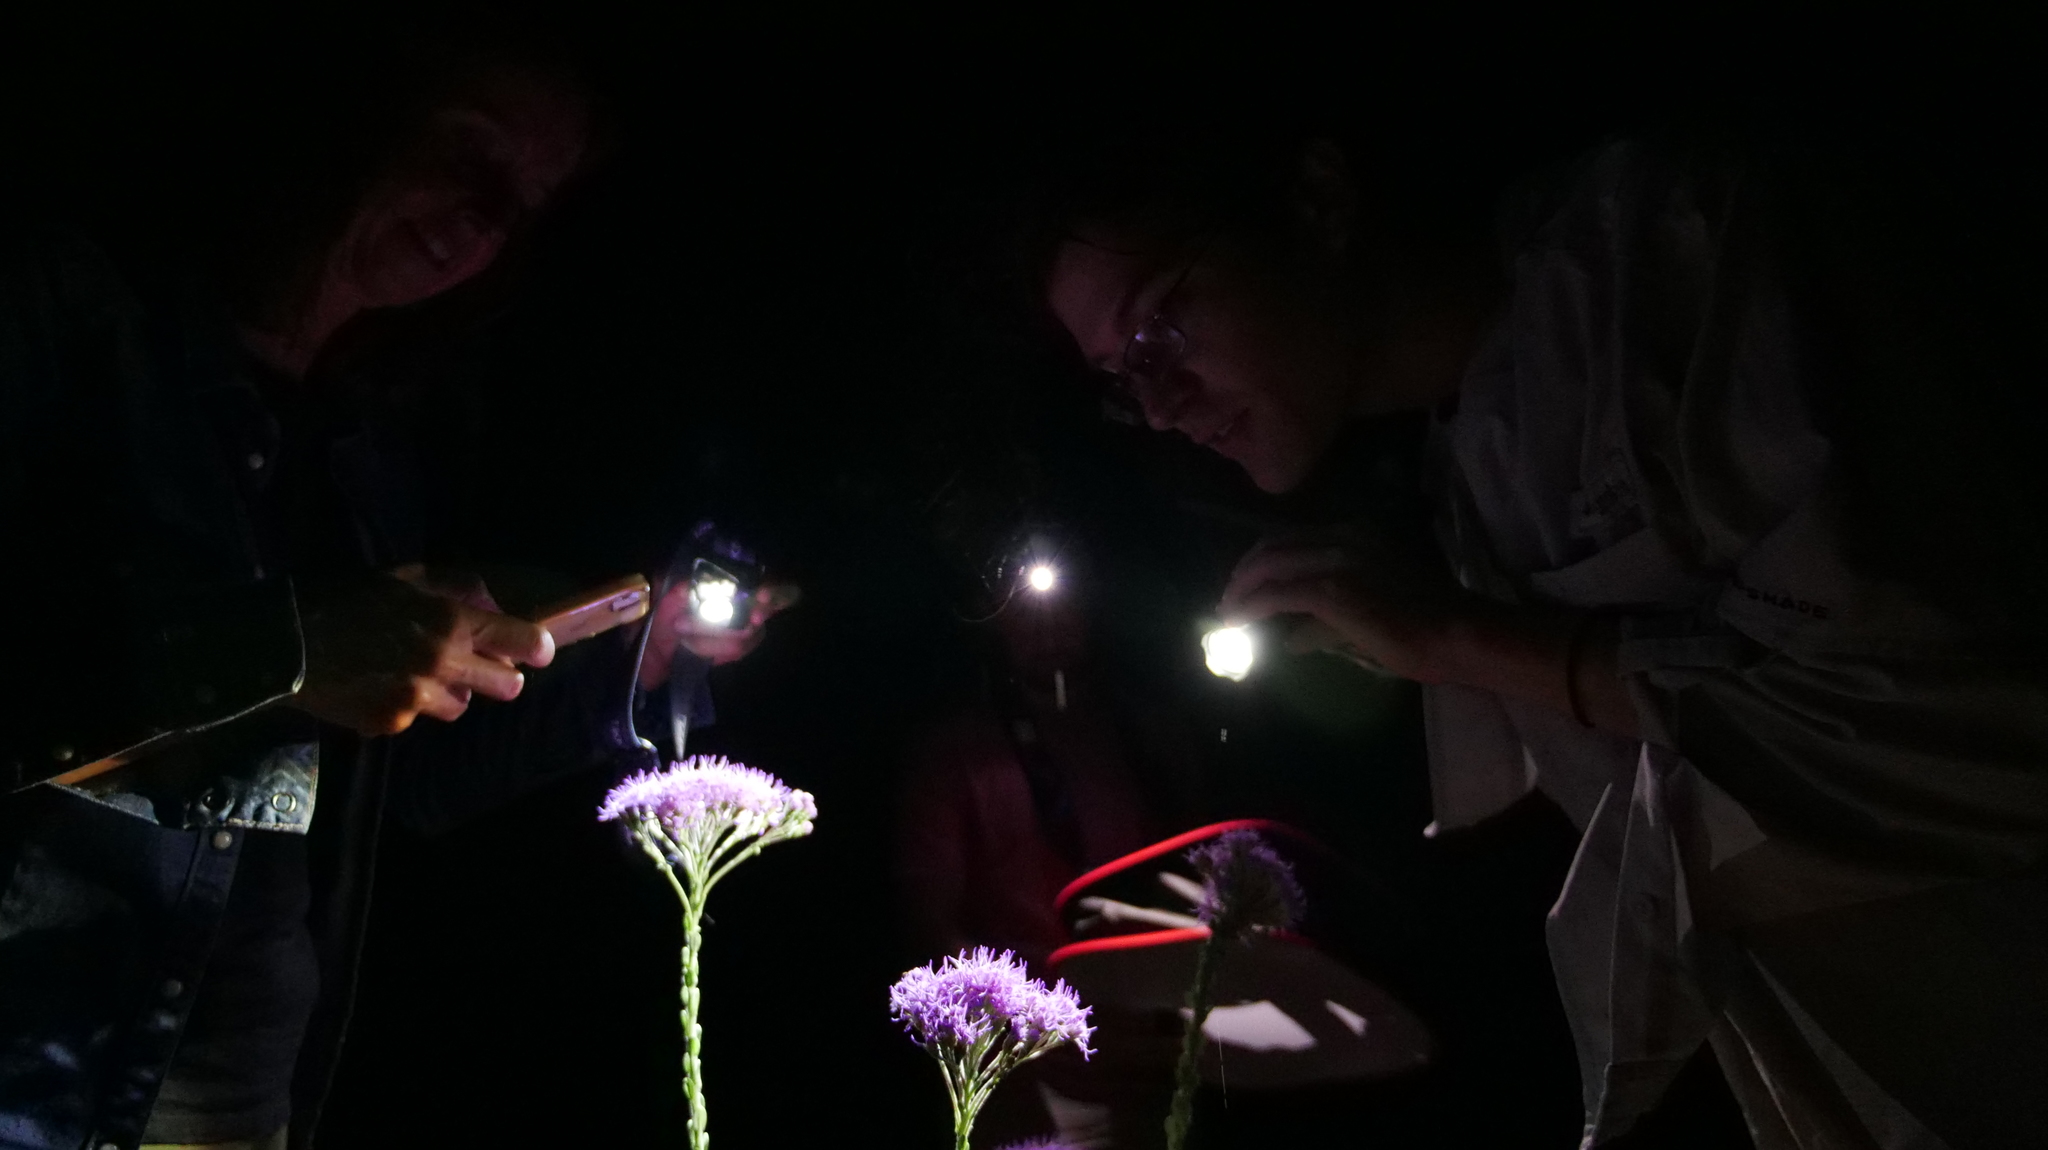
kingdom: Plantae
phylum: Tracheophyta
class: Magnoliopsida
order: Asterales
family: Asteraceae
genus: Carphephorus
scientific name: Carphephorus corymbosus
